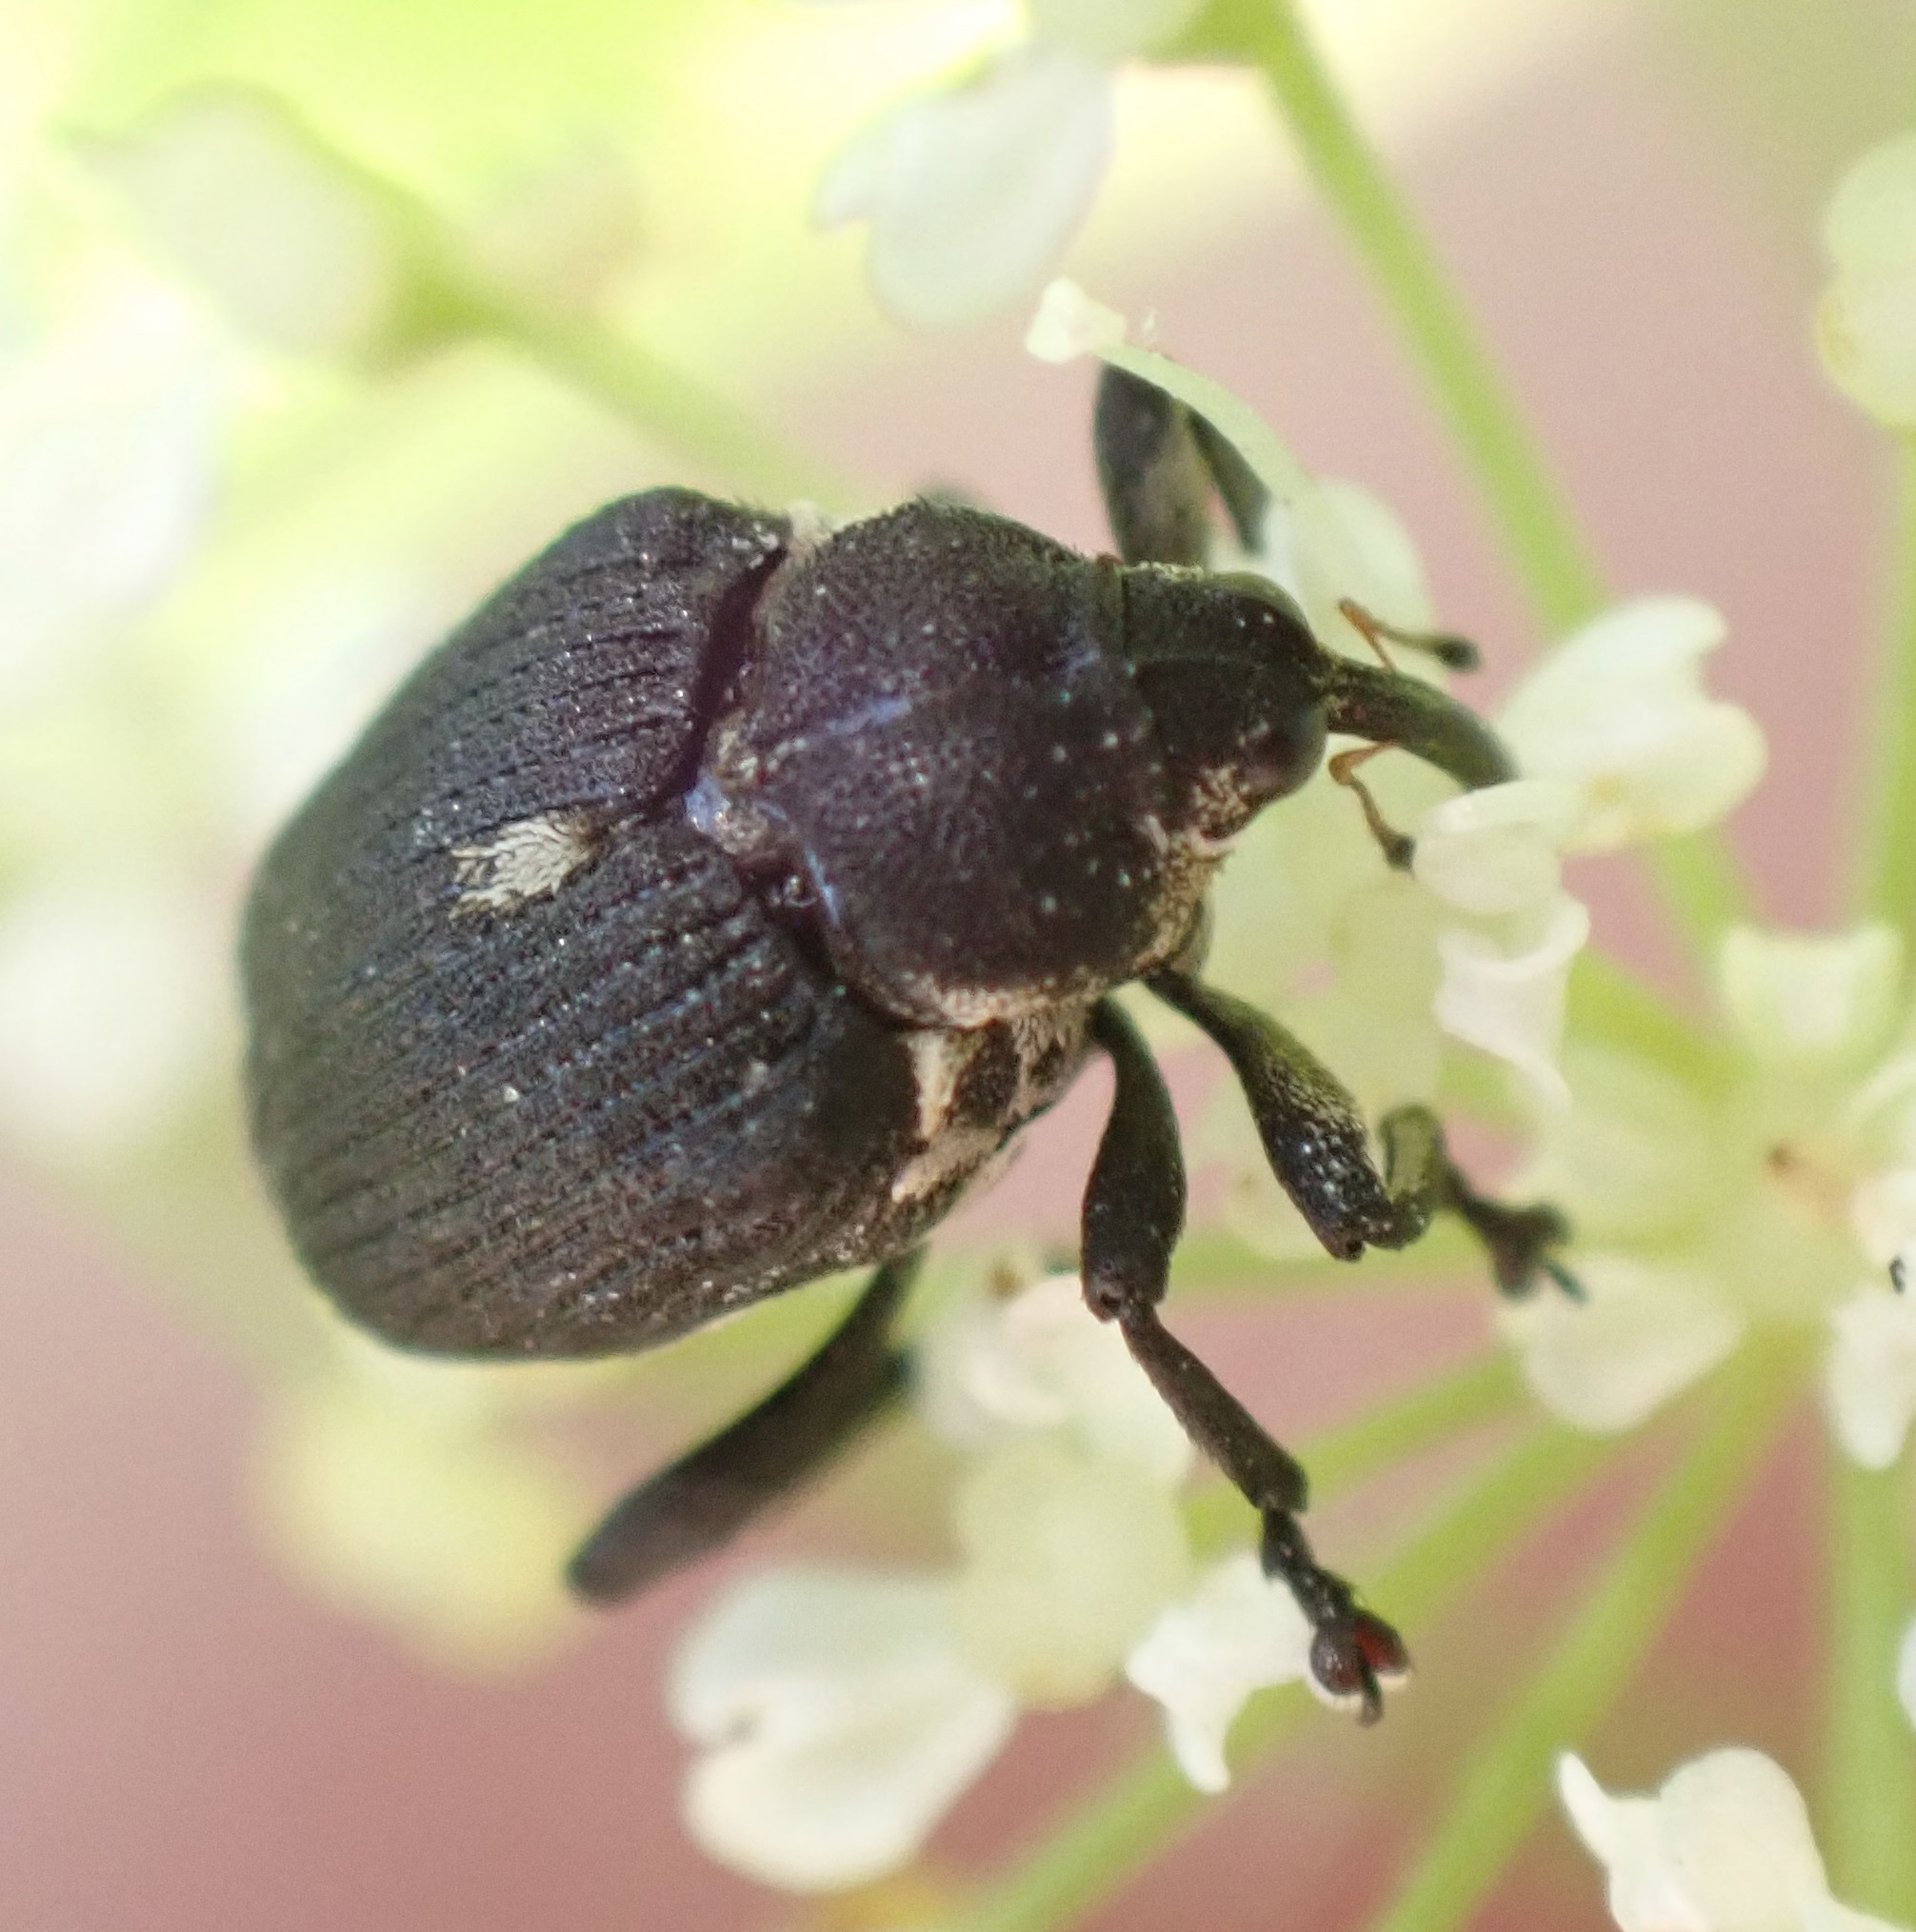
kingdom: Animalia
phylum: Arthropoda
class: Insecta
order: Coleoptera
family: Curculionidae
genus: Mononychus
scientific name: Mononychus punctumalbum
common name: Iris weevil
